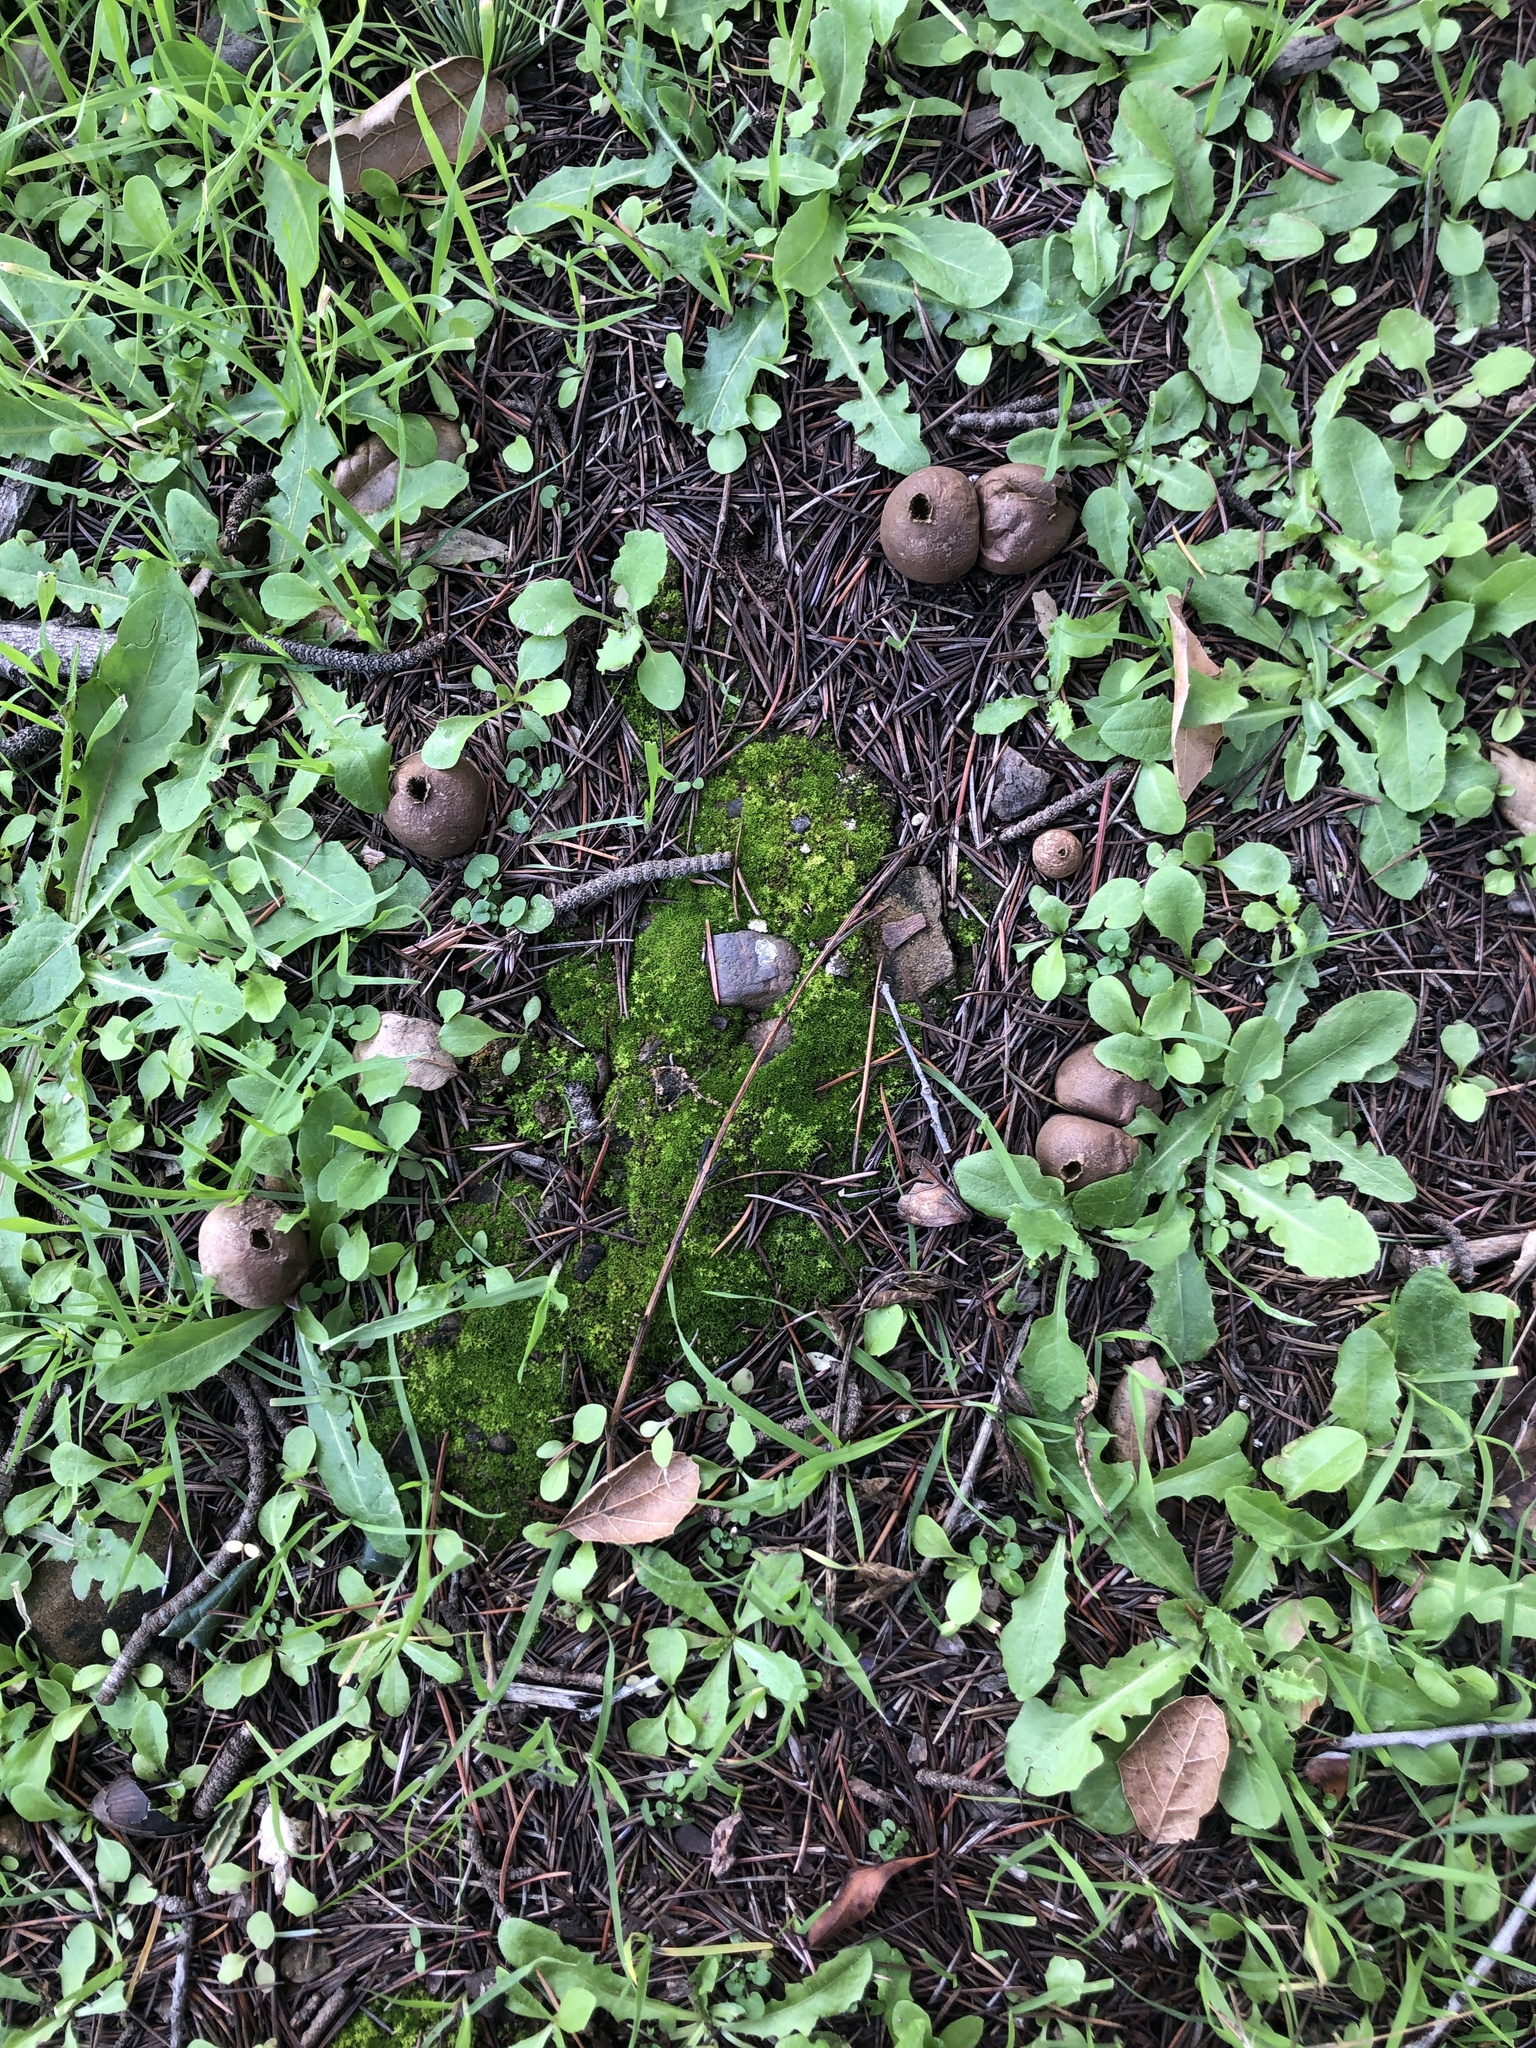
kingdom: Fungi
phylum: Basidiomycota
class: Agaricomycetes
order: Agaricales
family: Lycoperdaceae
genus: Lycoperdon
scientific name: Lycoperdon umbrinum
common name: Umber-brown puffball
